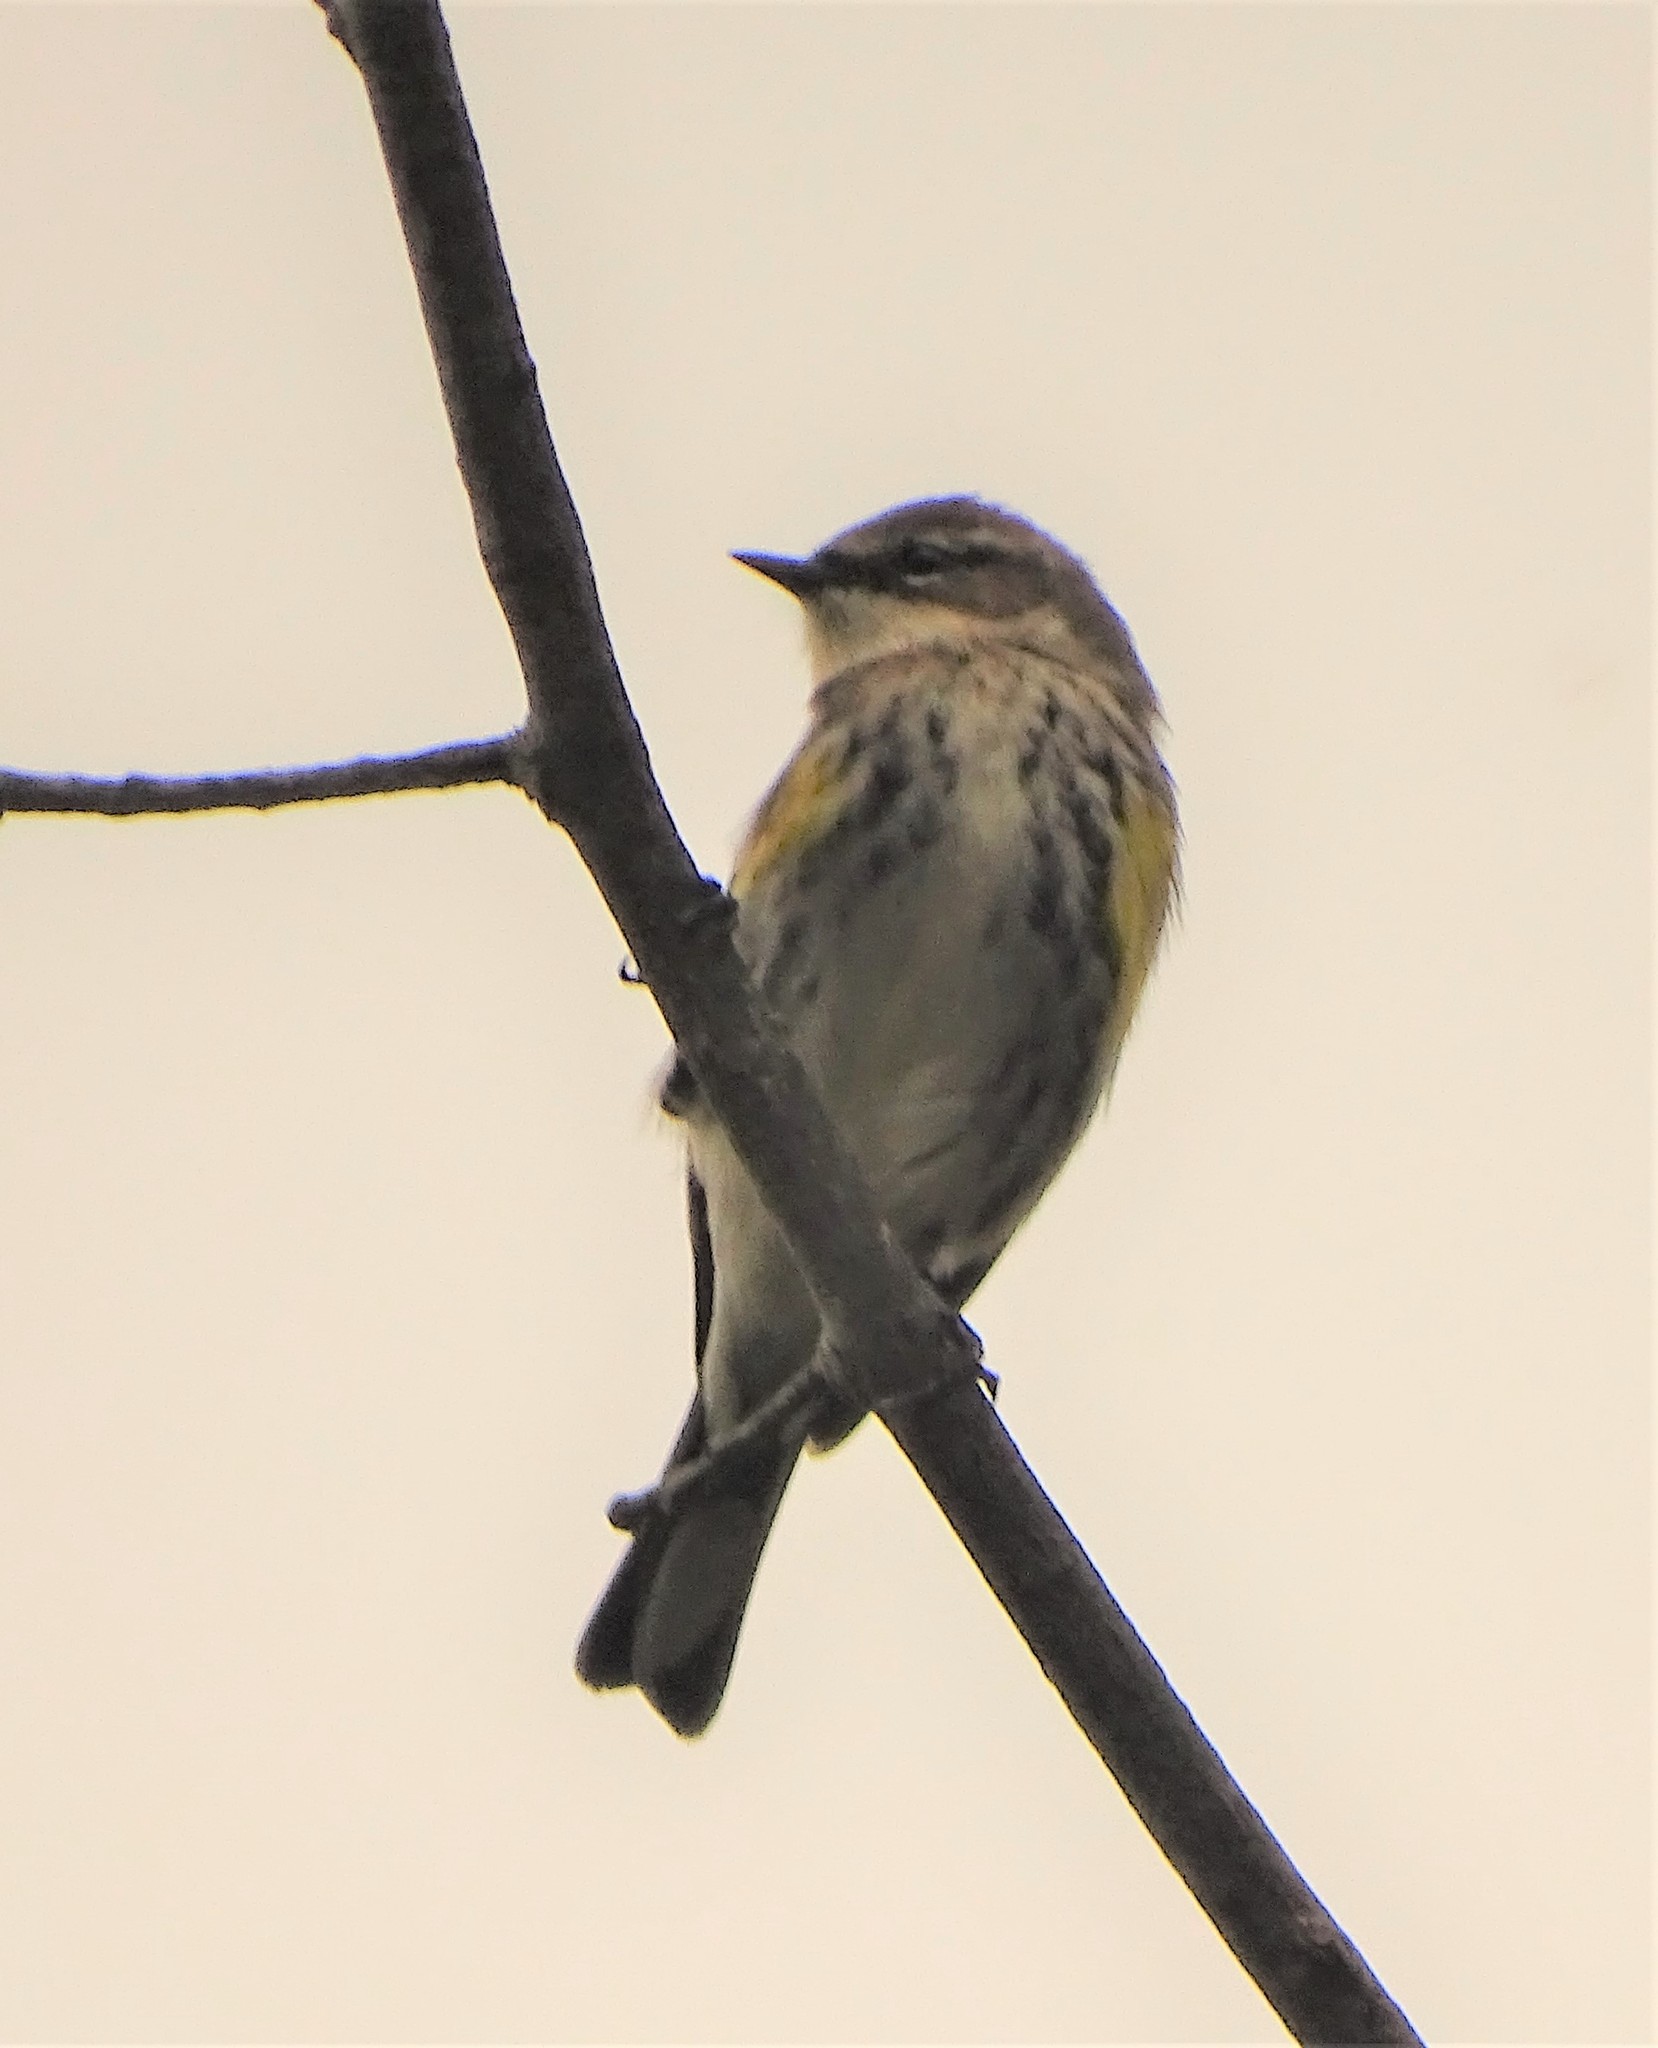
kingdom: Animalia
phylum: Chordata
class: Aves
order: Passeriformes
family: Parulidae
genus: Setophaga
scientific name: Setophaga coronata
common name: Myrtle warbler
